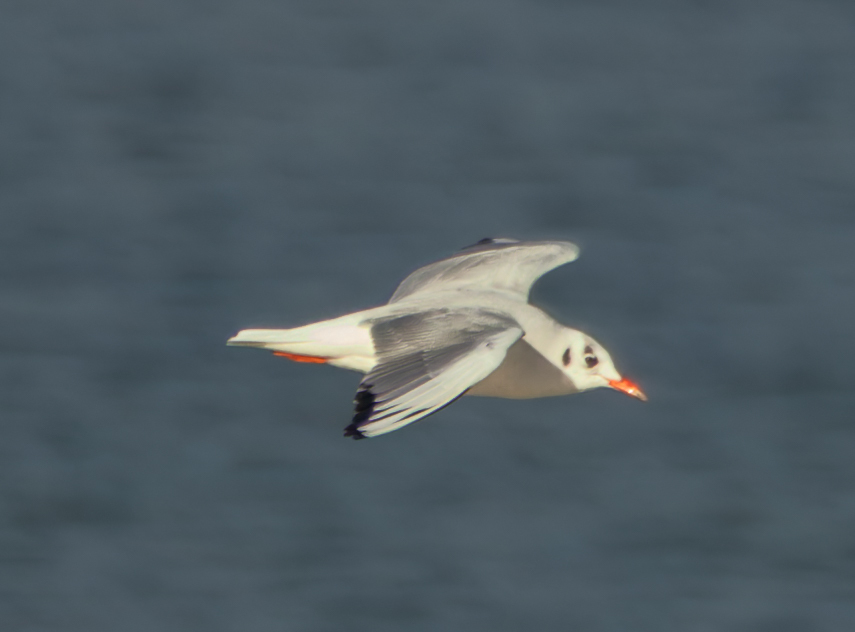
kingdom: Animalia
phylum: Chordata
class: Aves
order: Charadriiformes
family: Laridae
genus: Chroicocephalus
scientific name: Chroicocephalus ridibundus
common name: Black-headed gull
